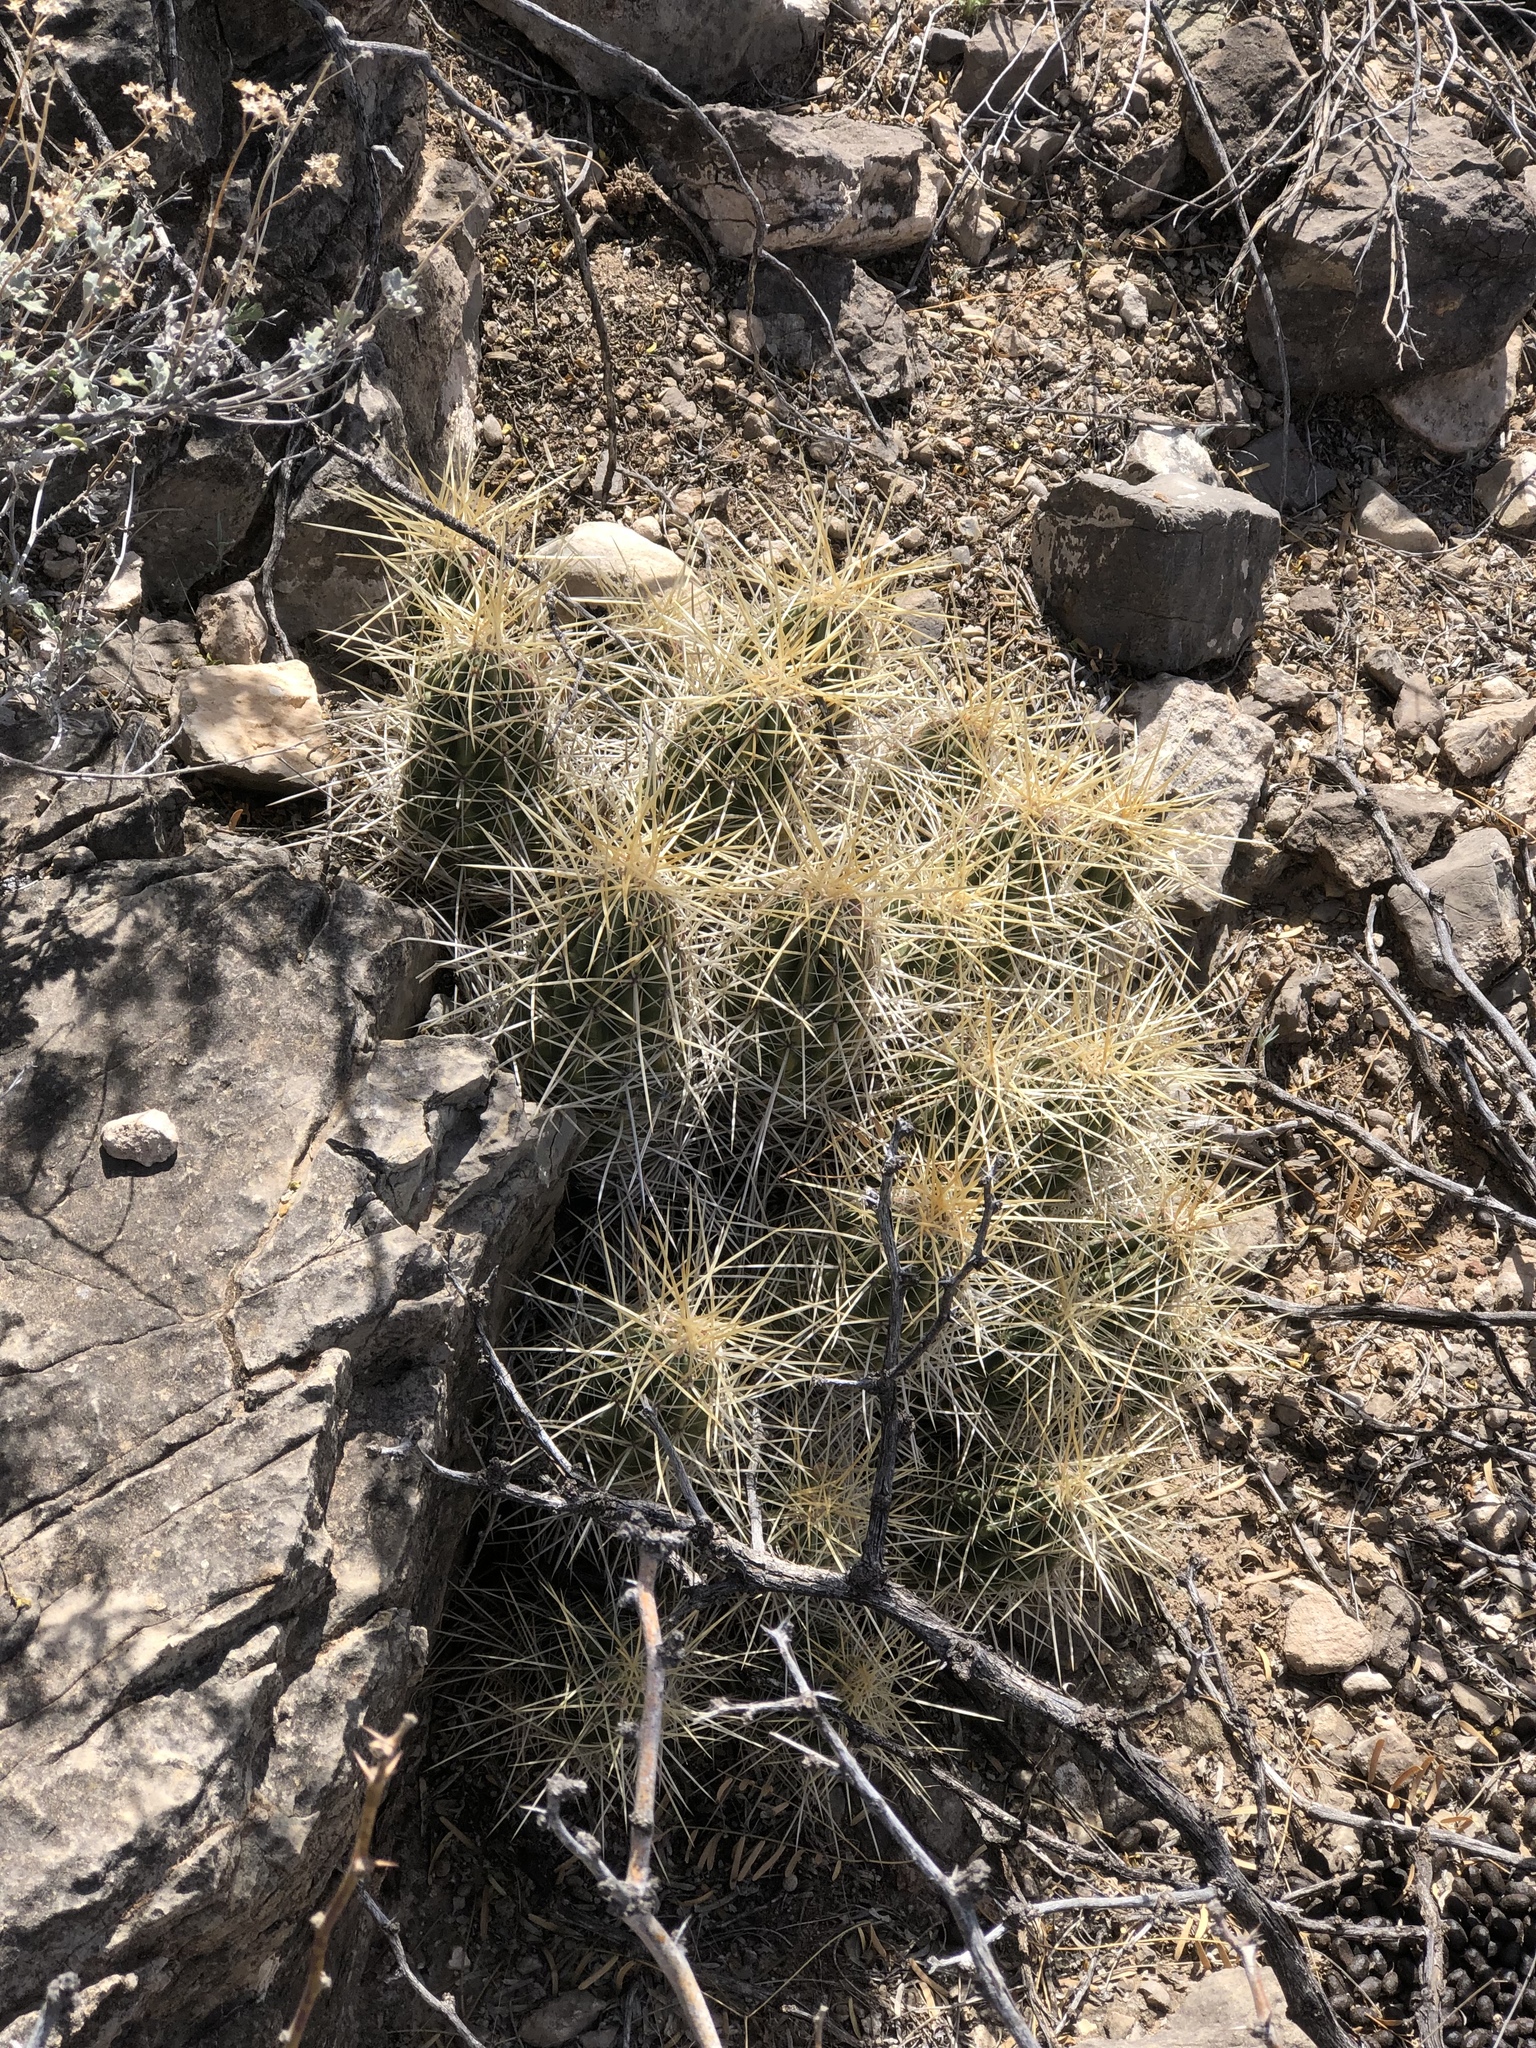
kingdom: Plantae
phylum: Tracheophyta
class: Magnoliopsida
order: Caryophyllales
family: Cactaceae
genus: Echinocereus
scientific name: Echinocereus stramineus
